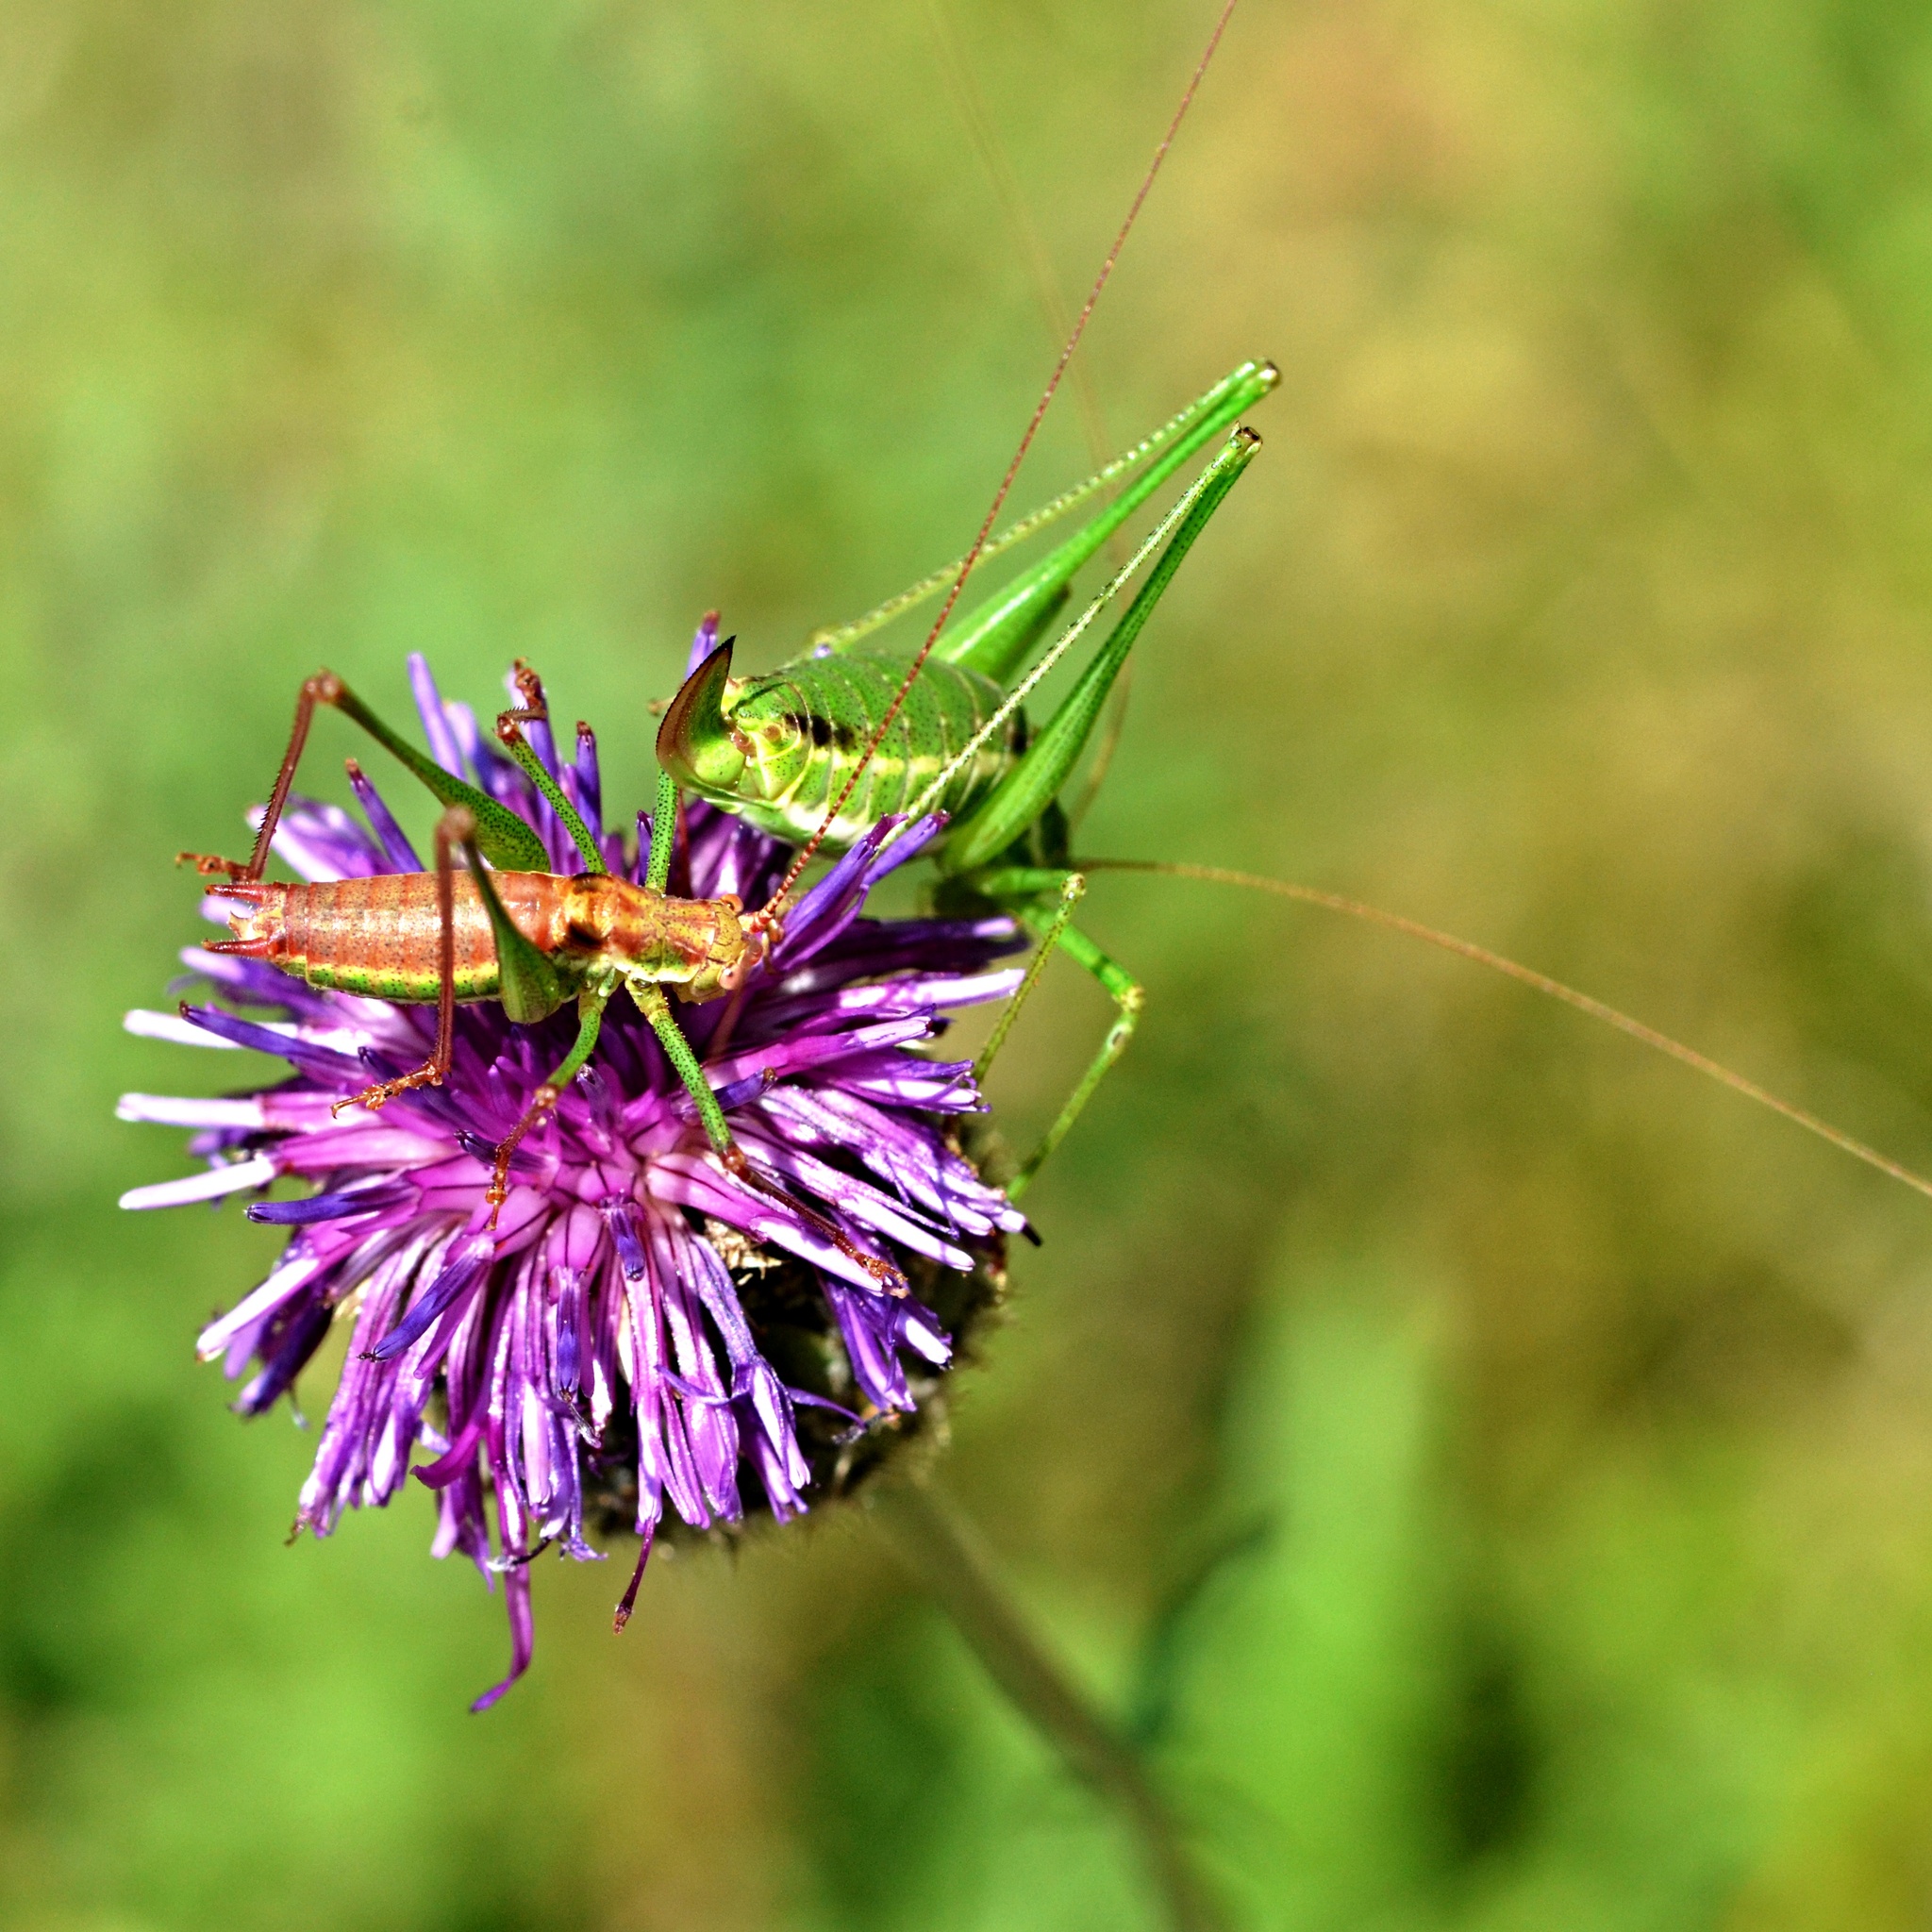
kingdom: Animalia
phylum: Arthropoda
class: Insecta
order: Orthoptera
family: Tettigoniidae
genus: Leptophyes
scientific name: Leptophyes albovittata
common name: Striped bush-cricket
